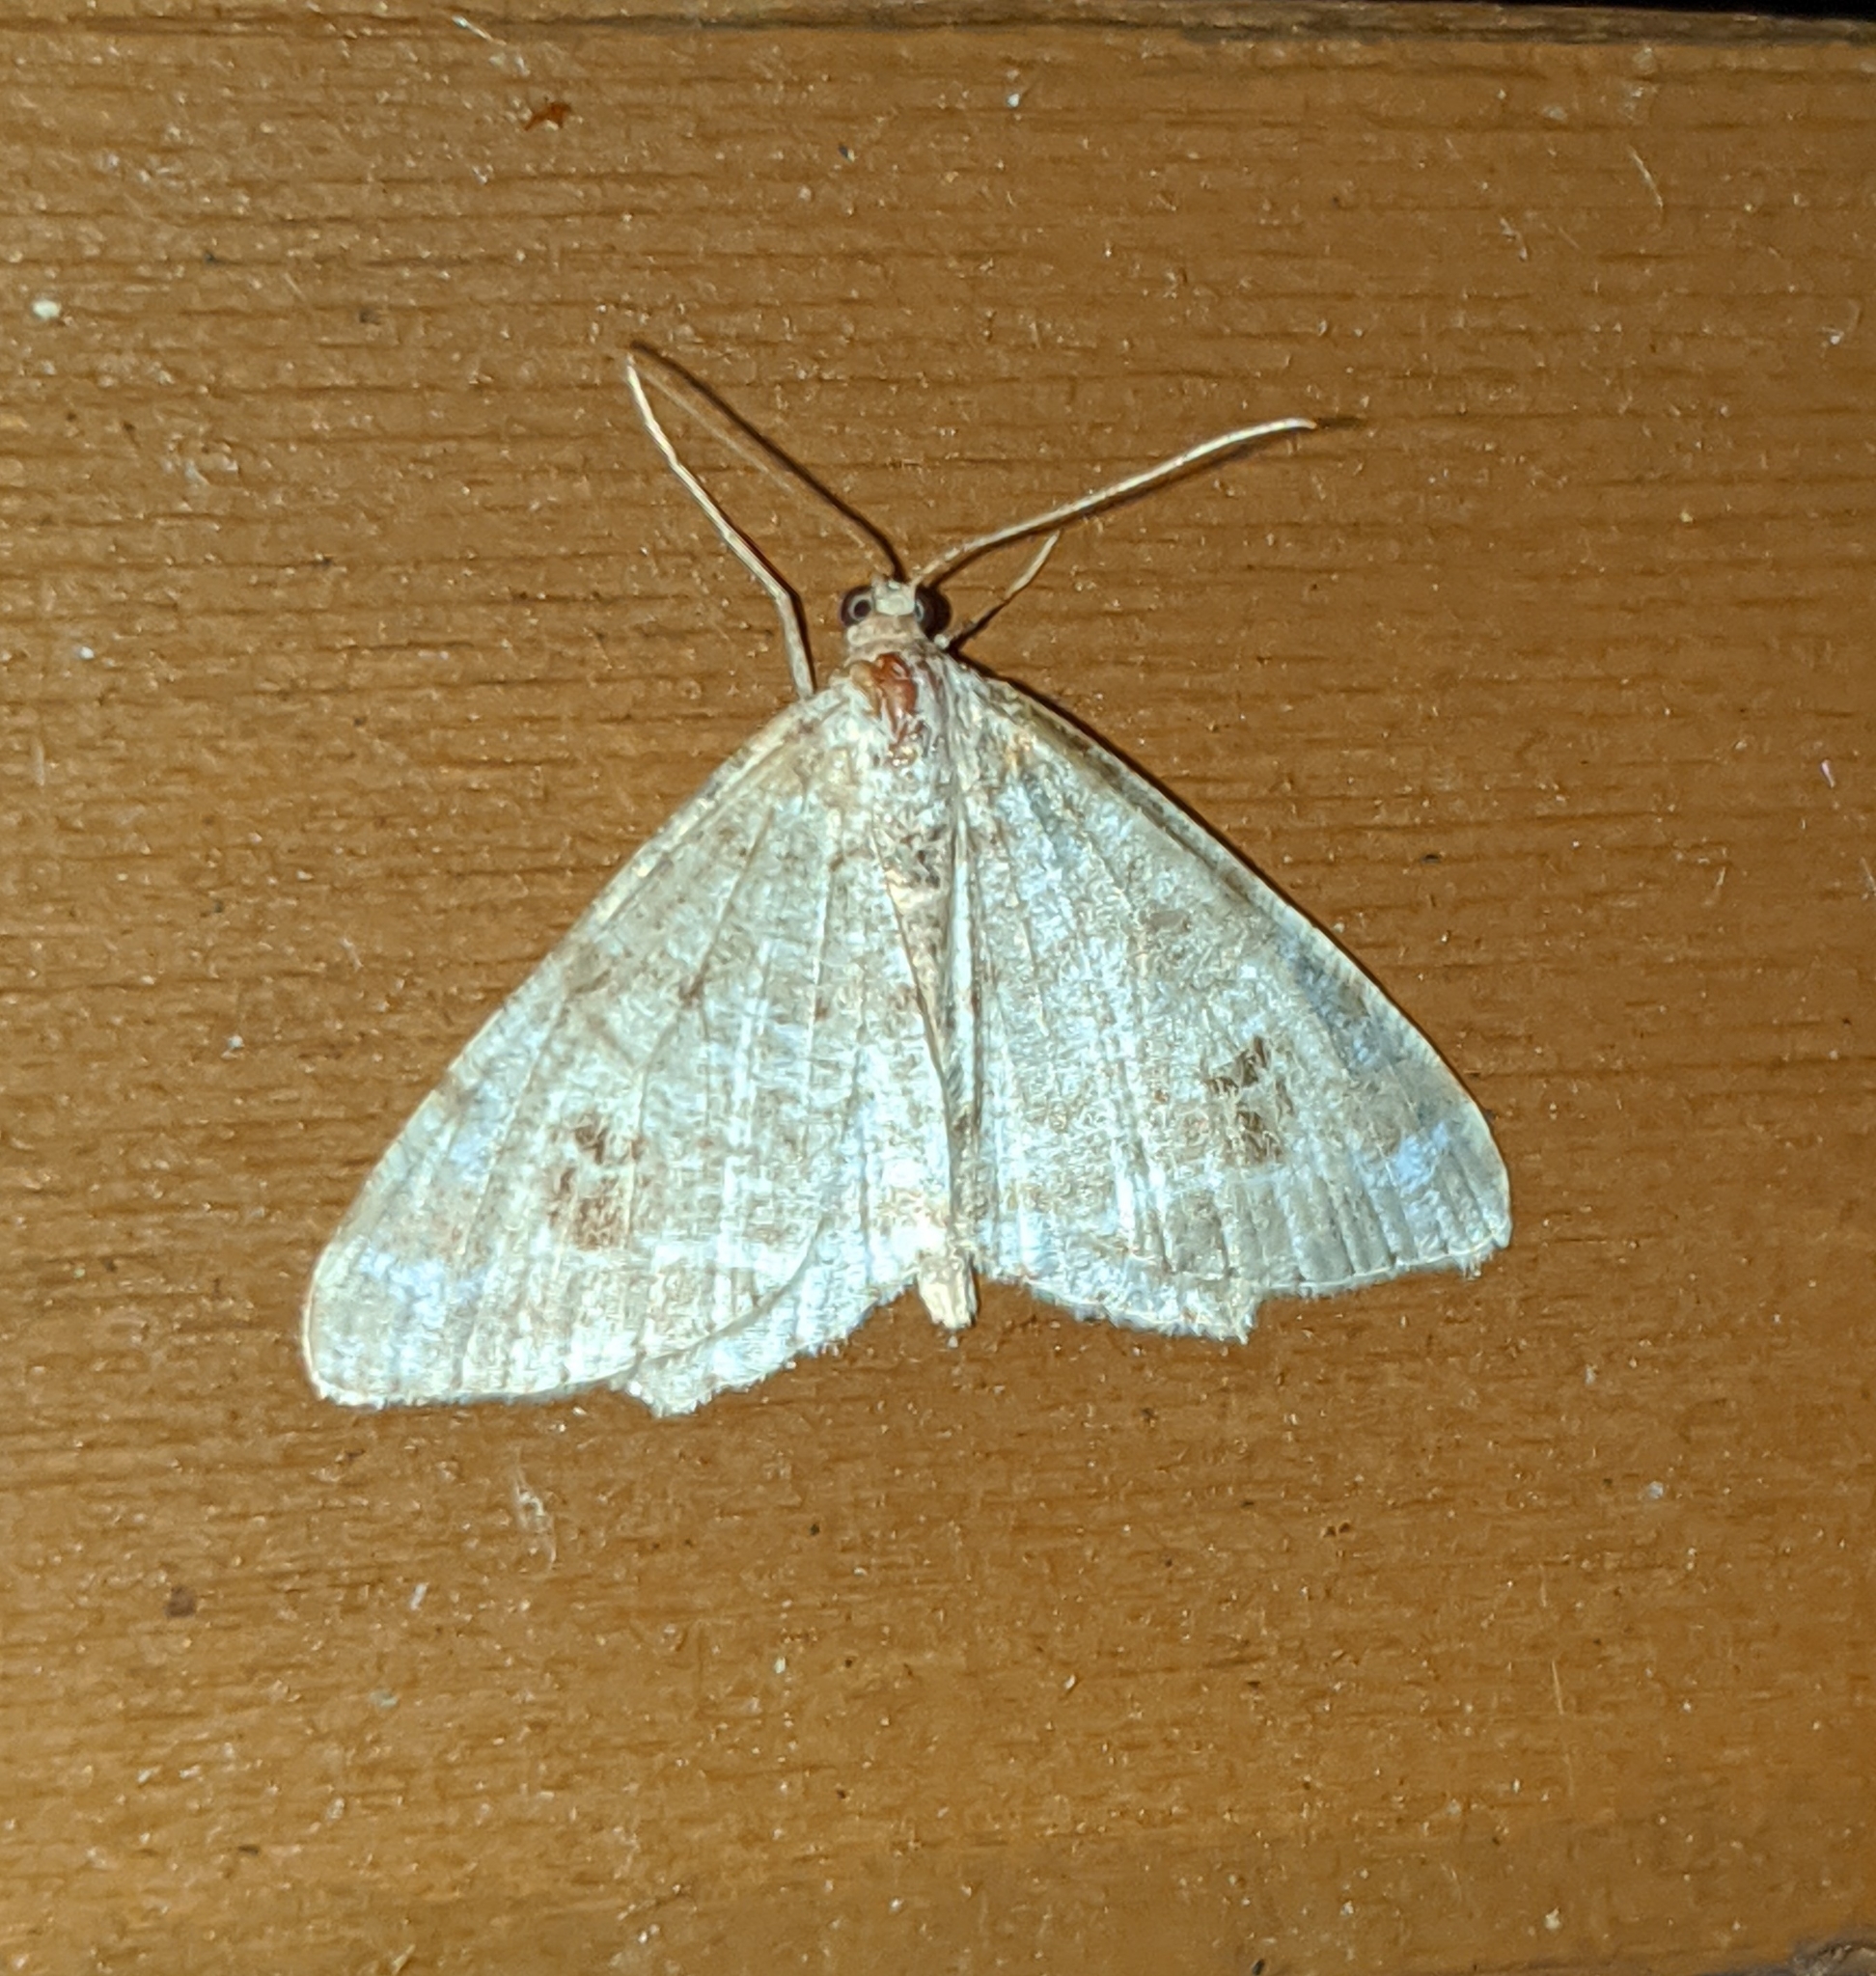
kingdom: Animalia
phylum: Arthropoda
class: Insecta
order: Lepidoptera
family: Geometridae
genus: Macaria
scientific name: Macaria signaria
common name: Dusky peacock
